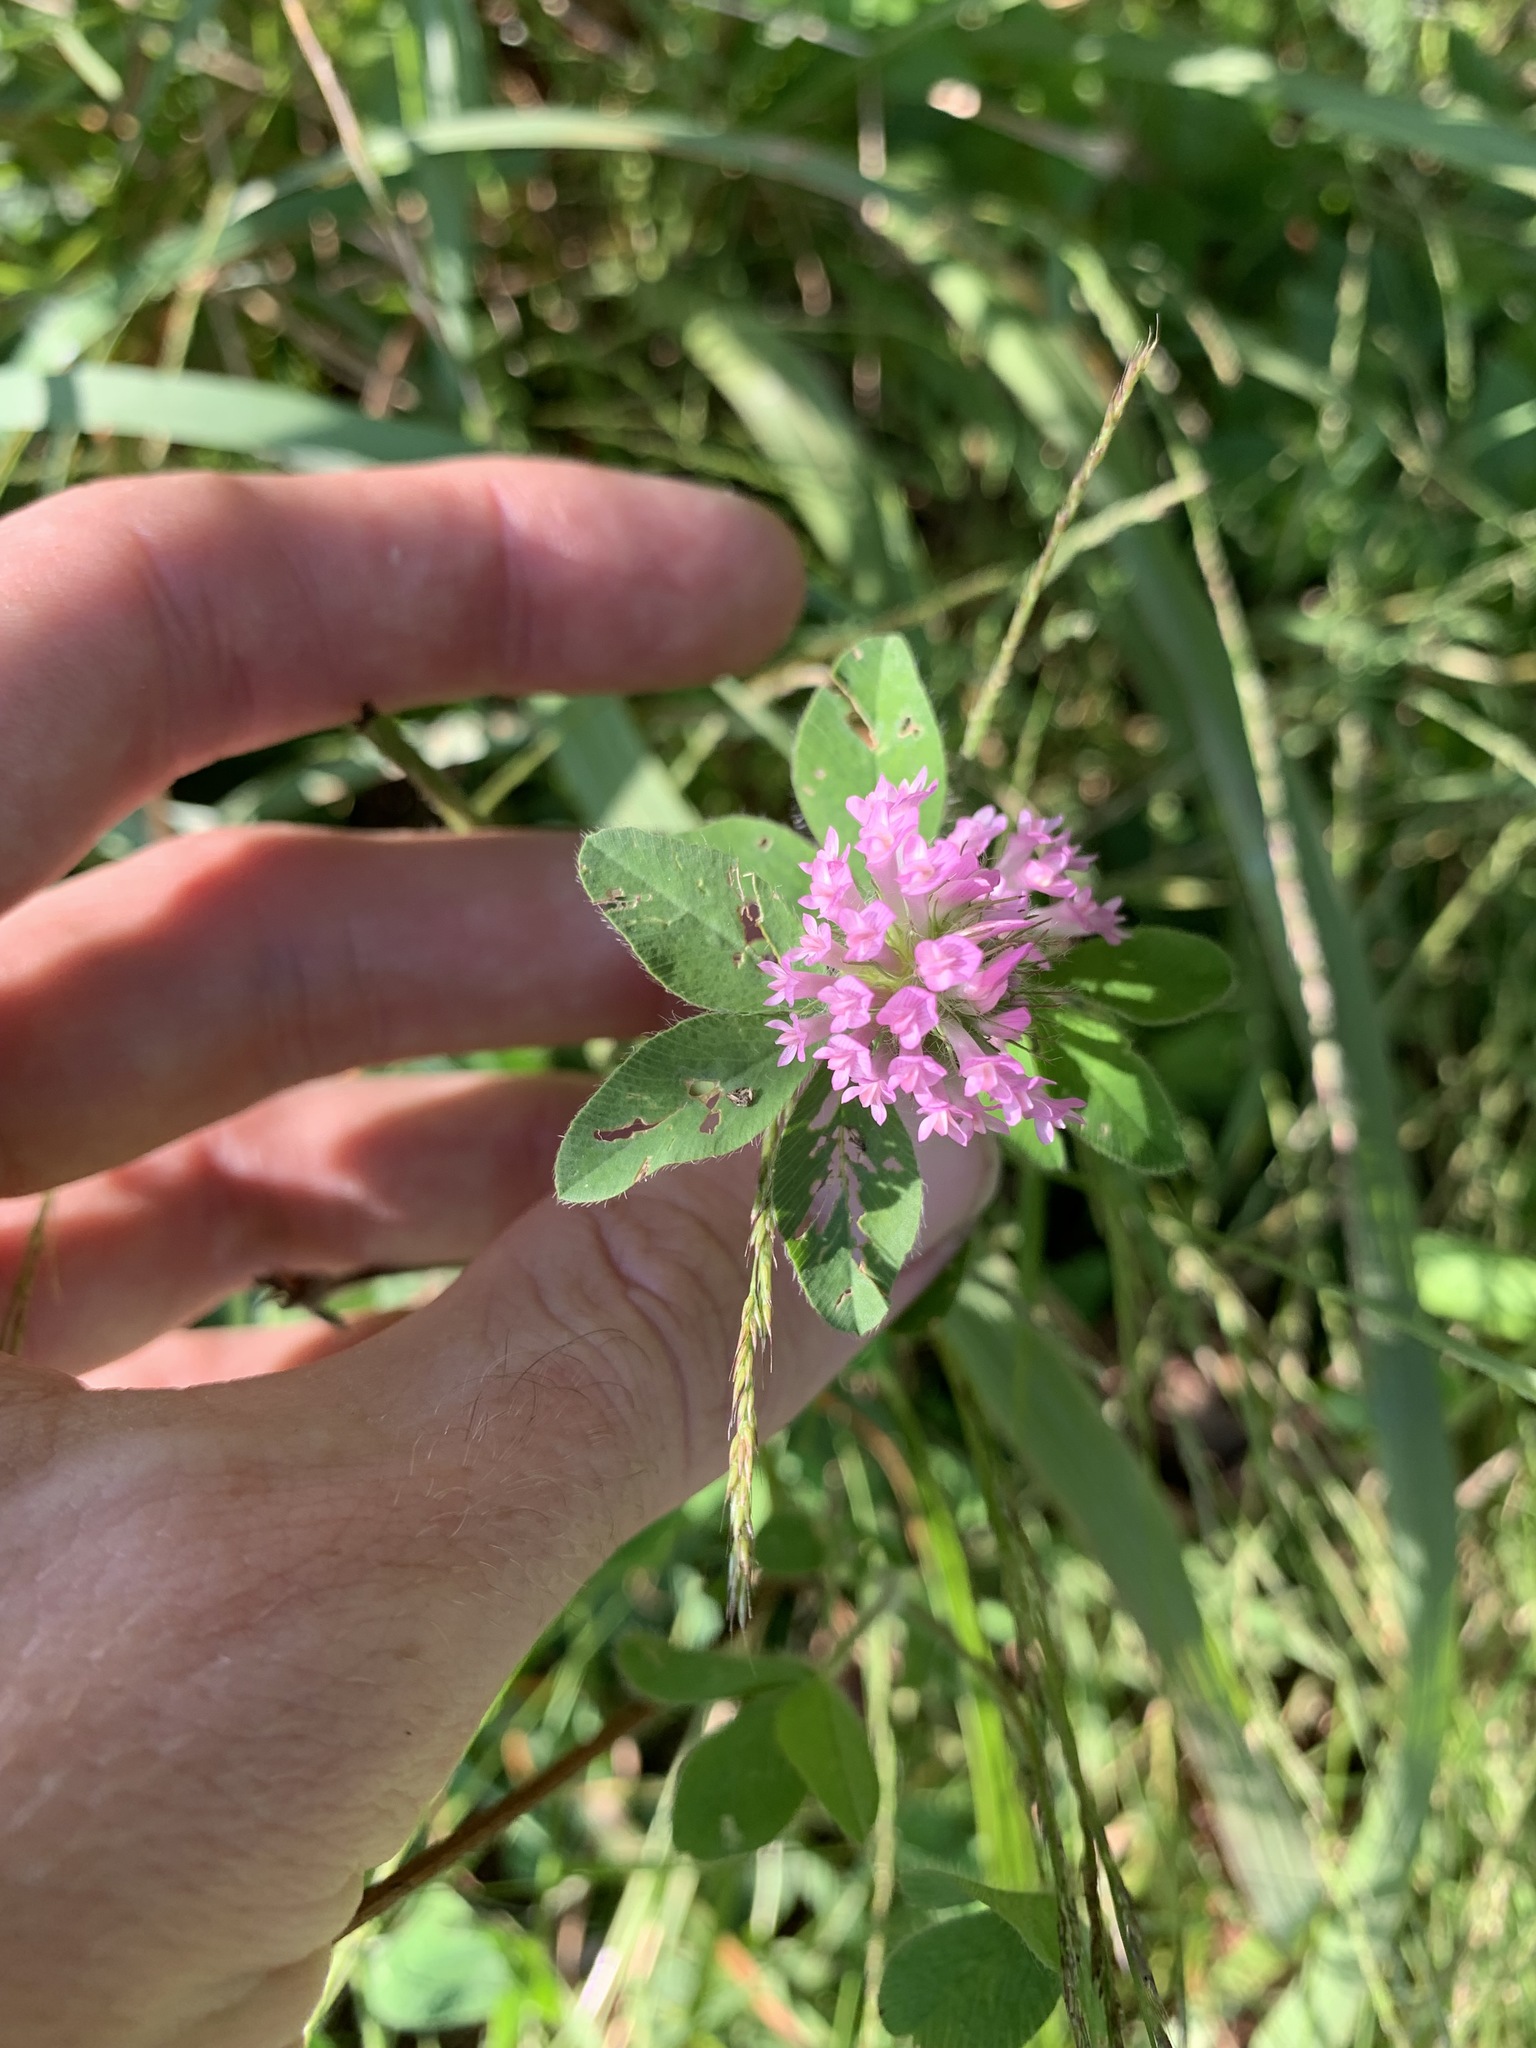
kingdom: Plantae
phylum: Tracheophyta
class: Magnoliopsida
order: Fabales
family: Fabaceae
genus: Trifolium
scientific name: Trifolium pratense
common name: Red clover
